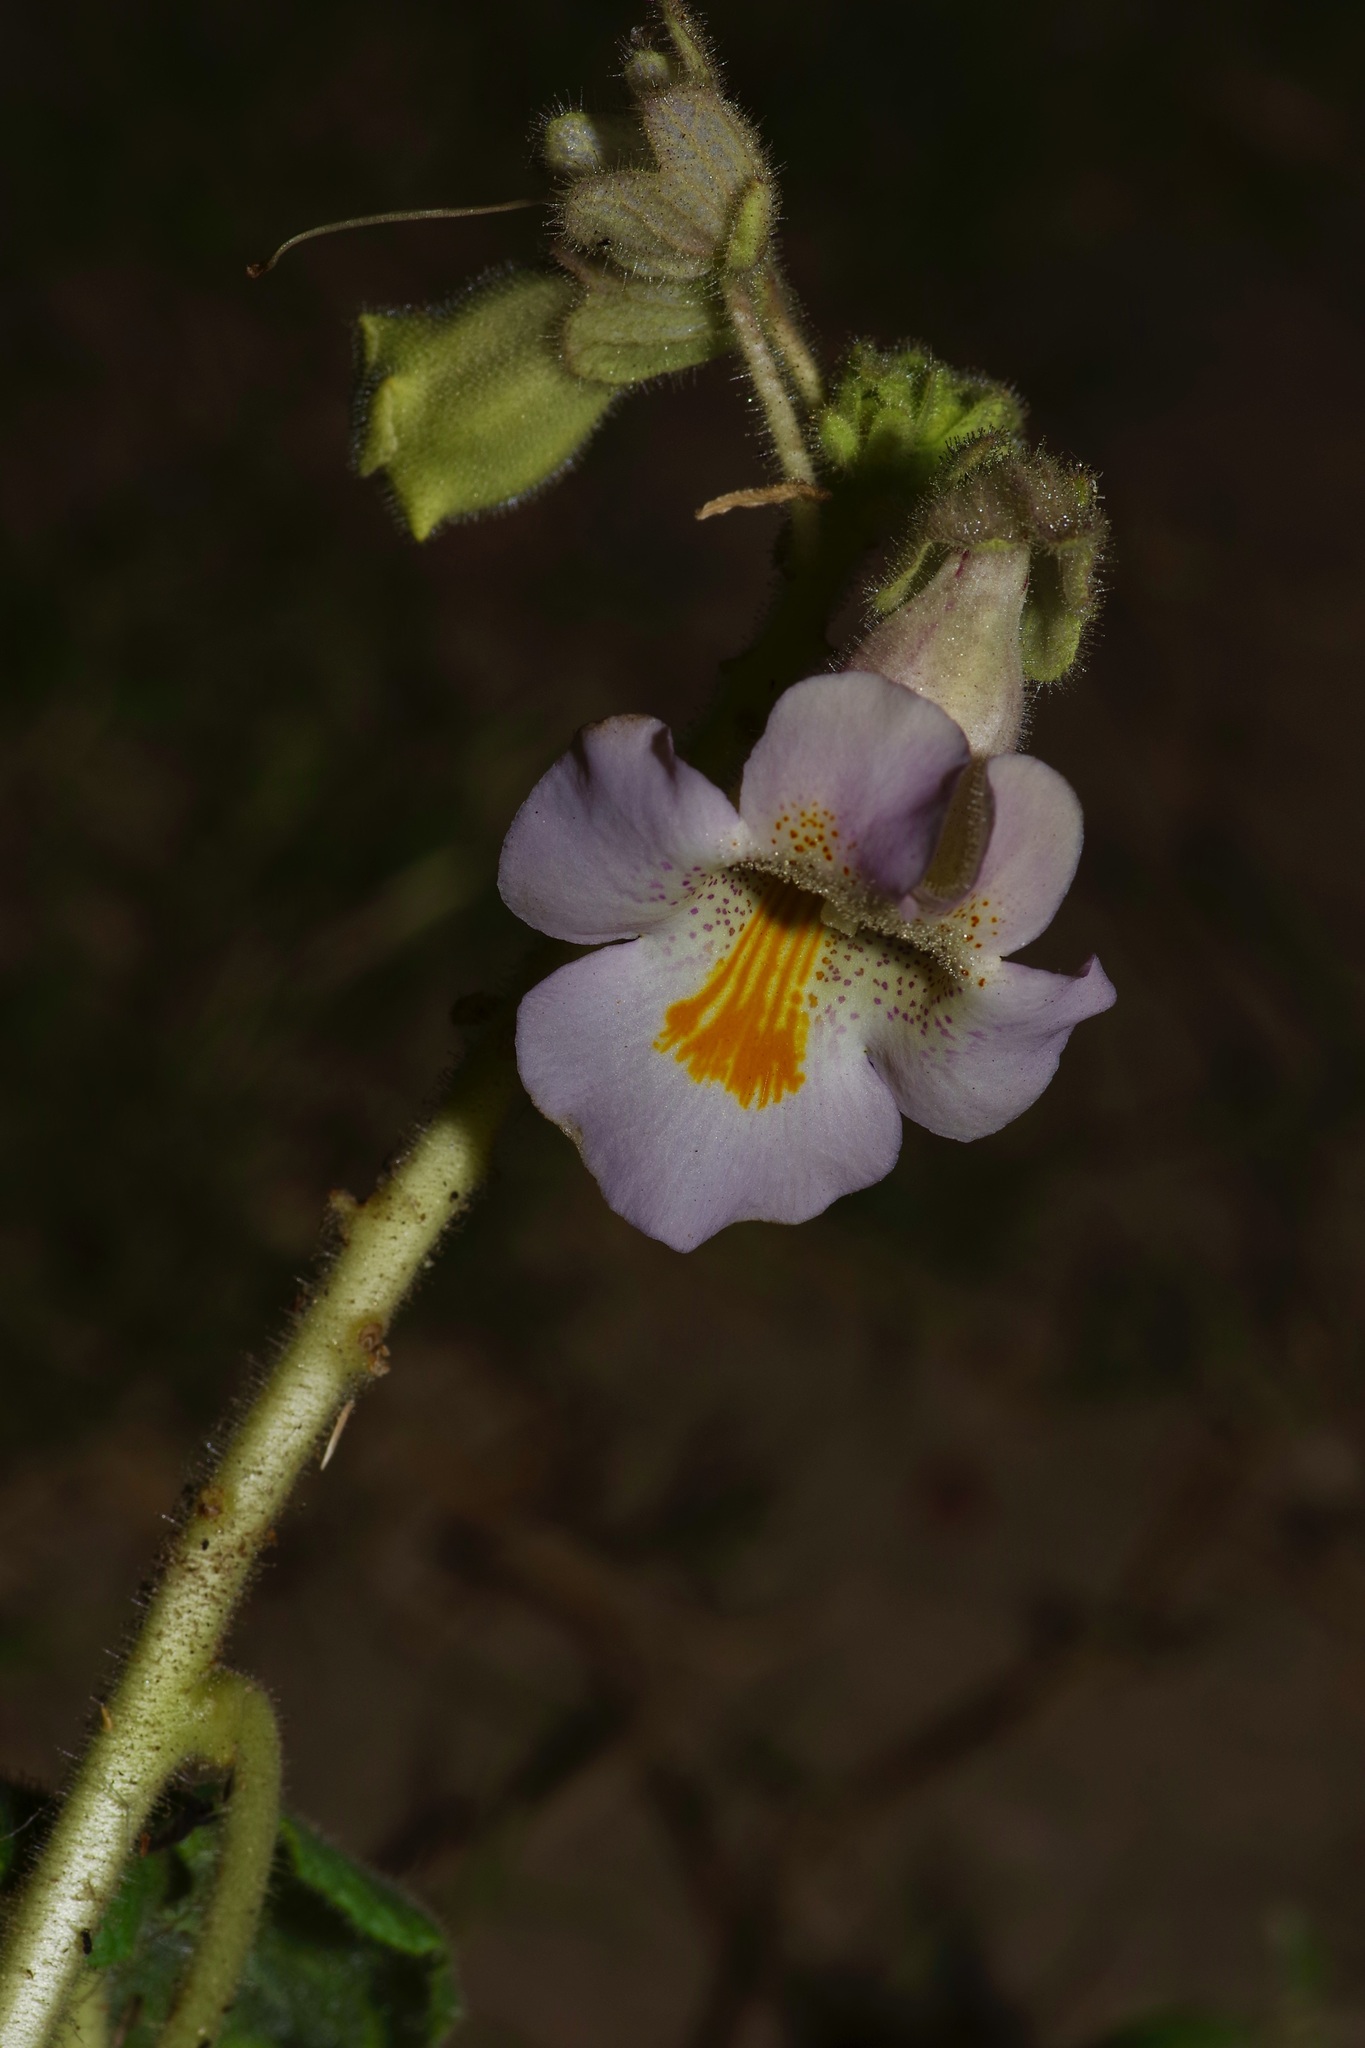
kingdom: Plantae
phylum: Tracheophyta
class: Magnoliopsida
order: Lamiales
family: Martyniaceae
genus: Proboscidea
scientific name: Proboscidea louisianica
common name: Elephant tusks
